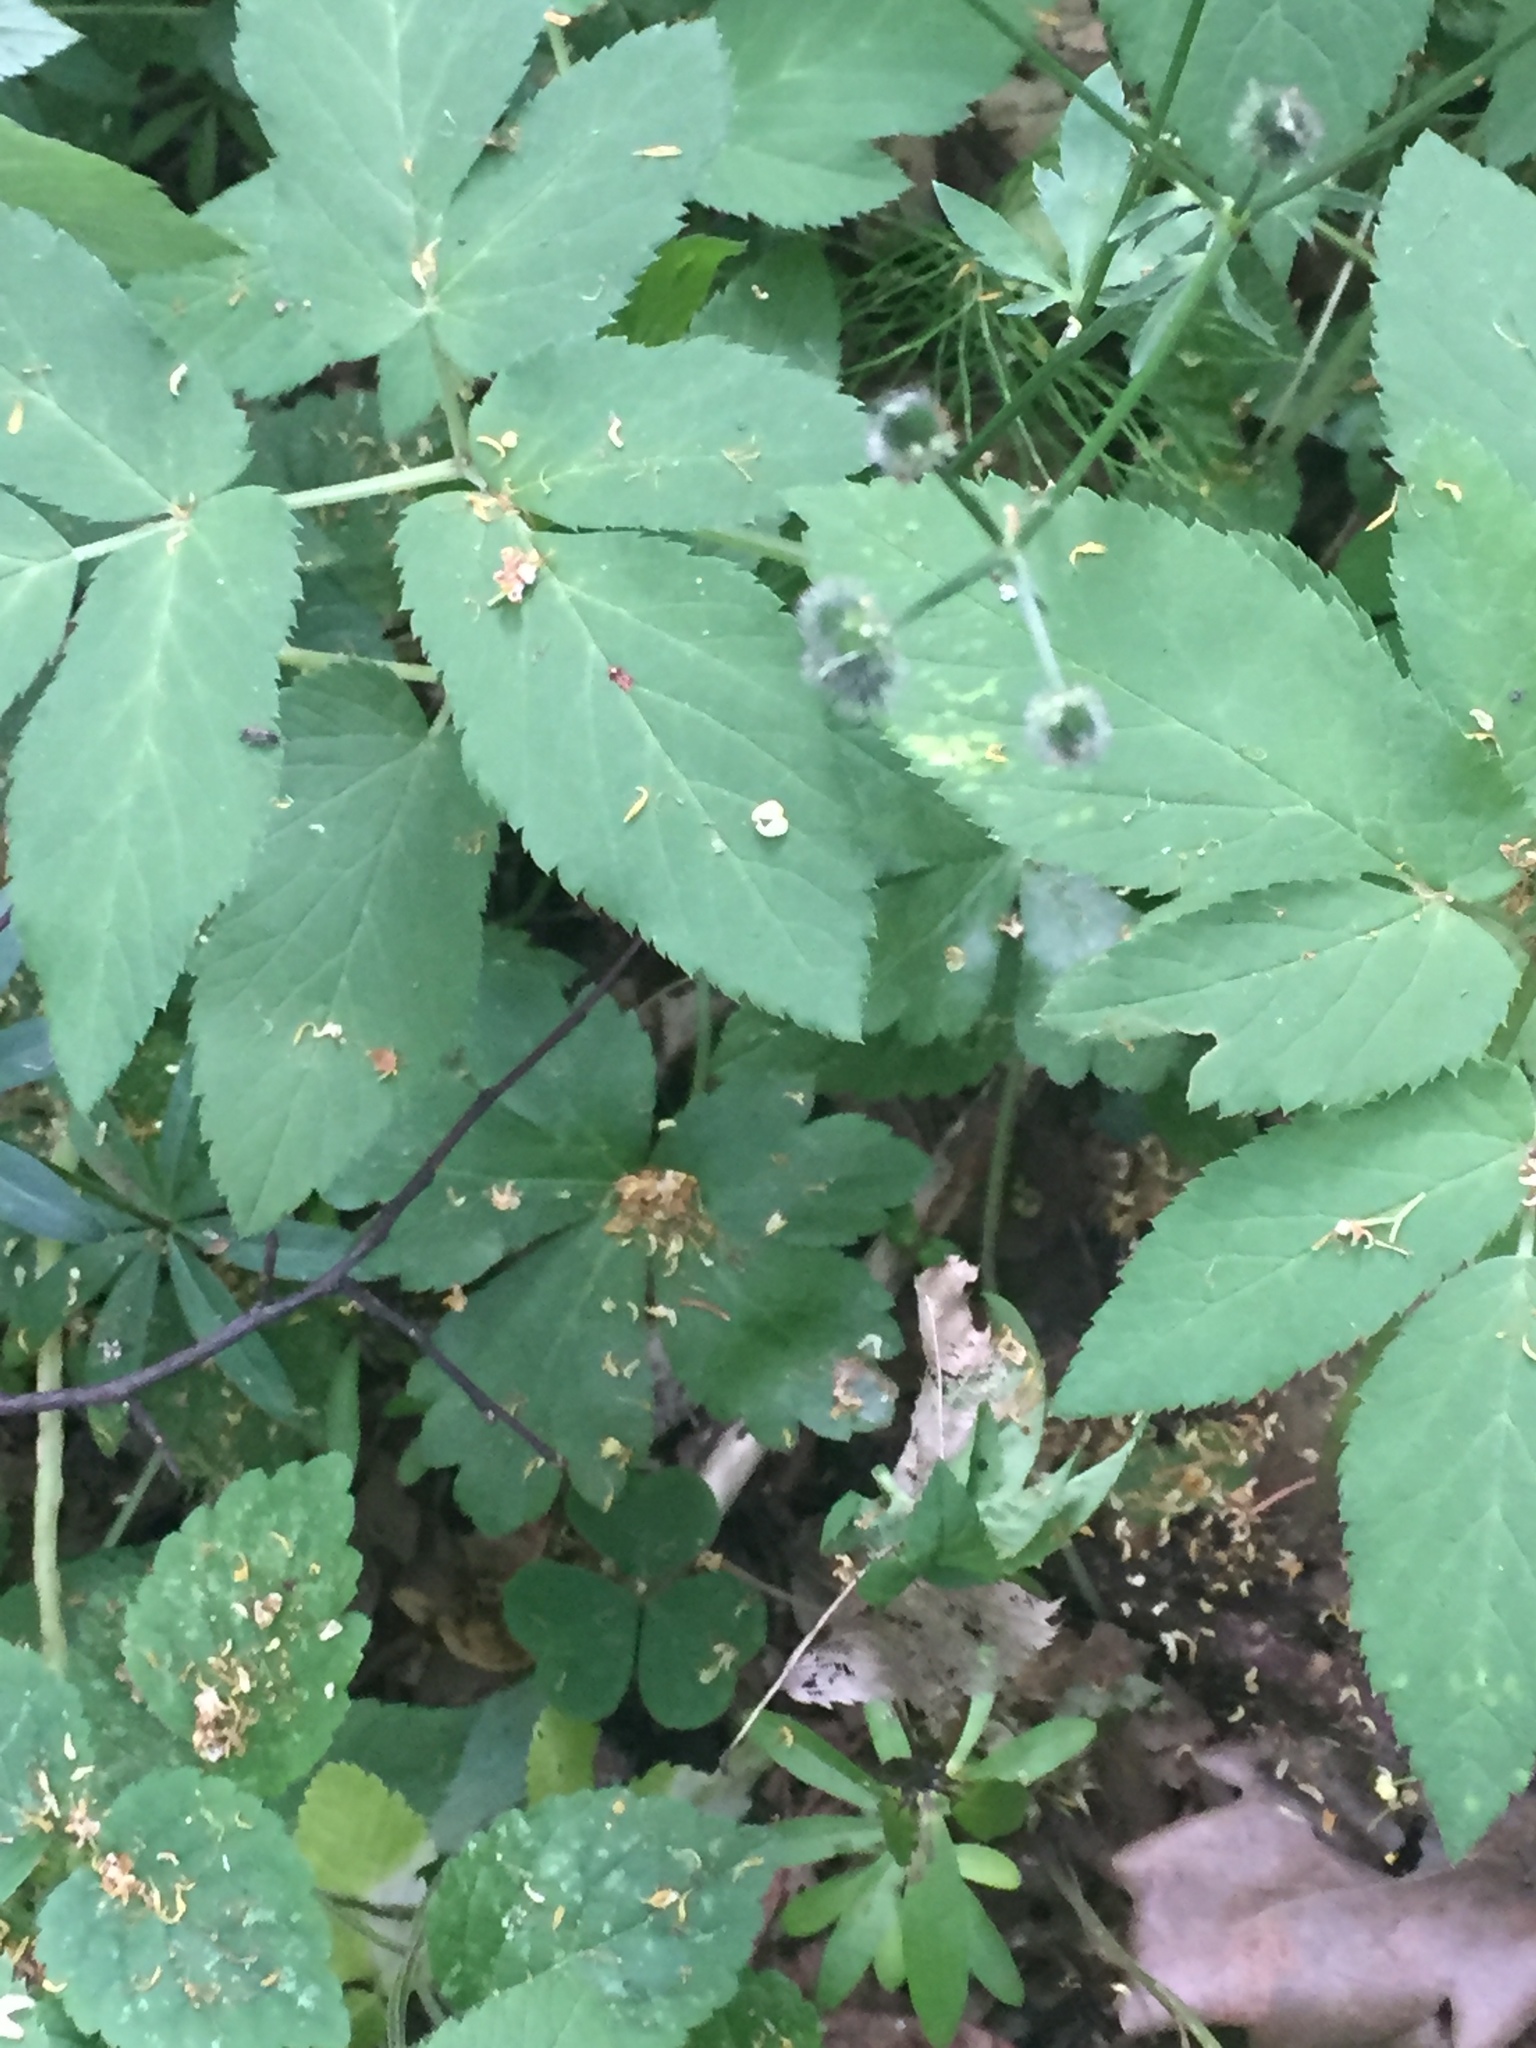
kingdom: Plantae
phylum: Tracheophyta
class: Magnoliopsida
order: Apiales
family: Apiaceae
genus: Sanicula
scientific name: Sanicula europaea
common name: Sanicle
